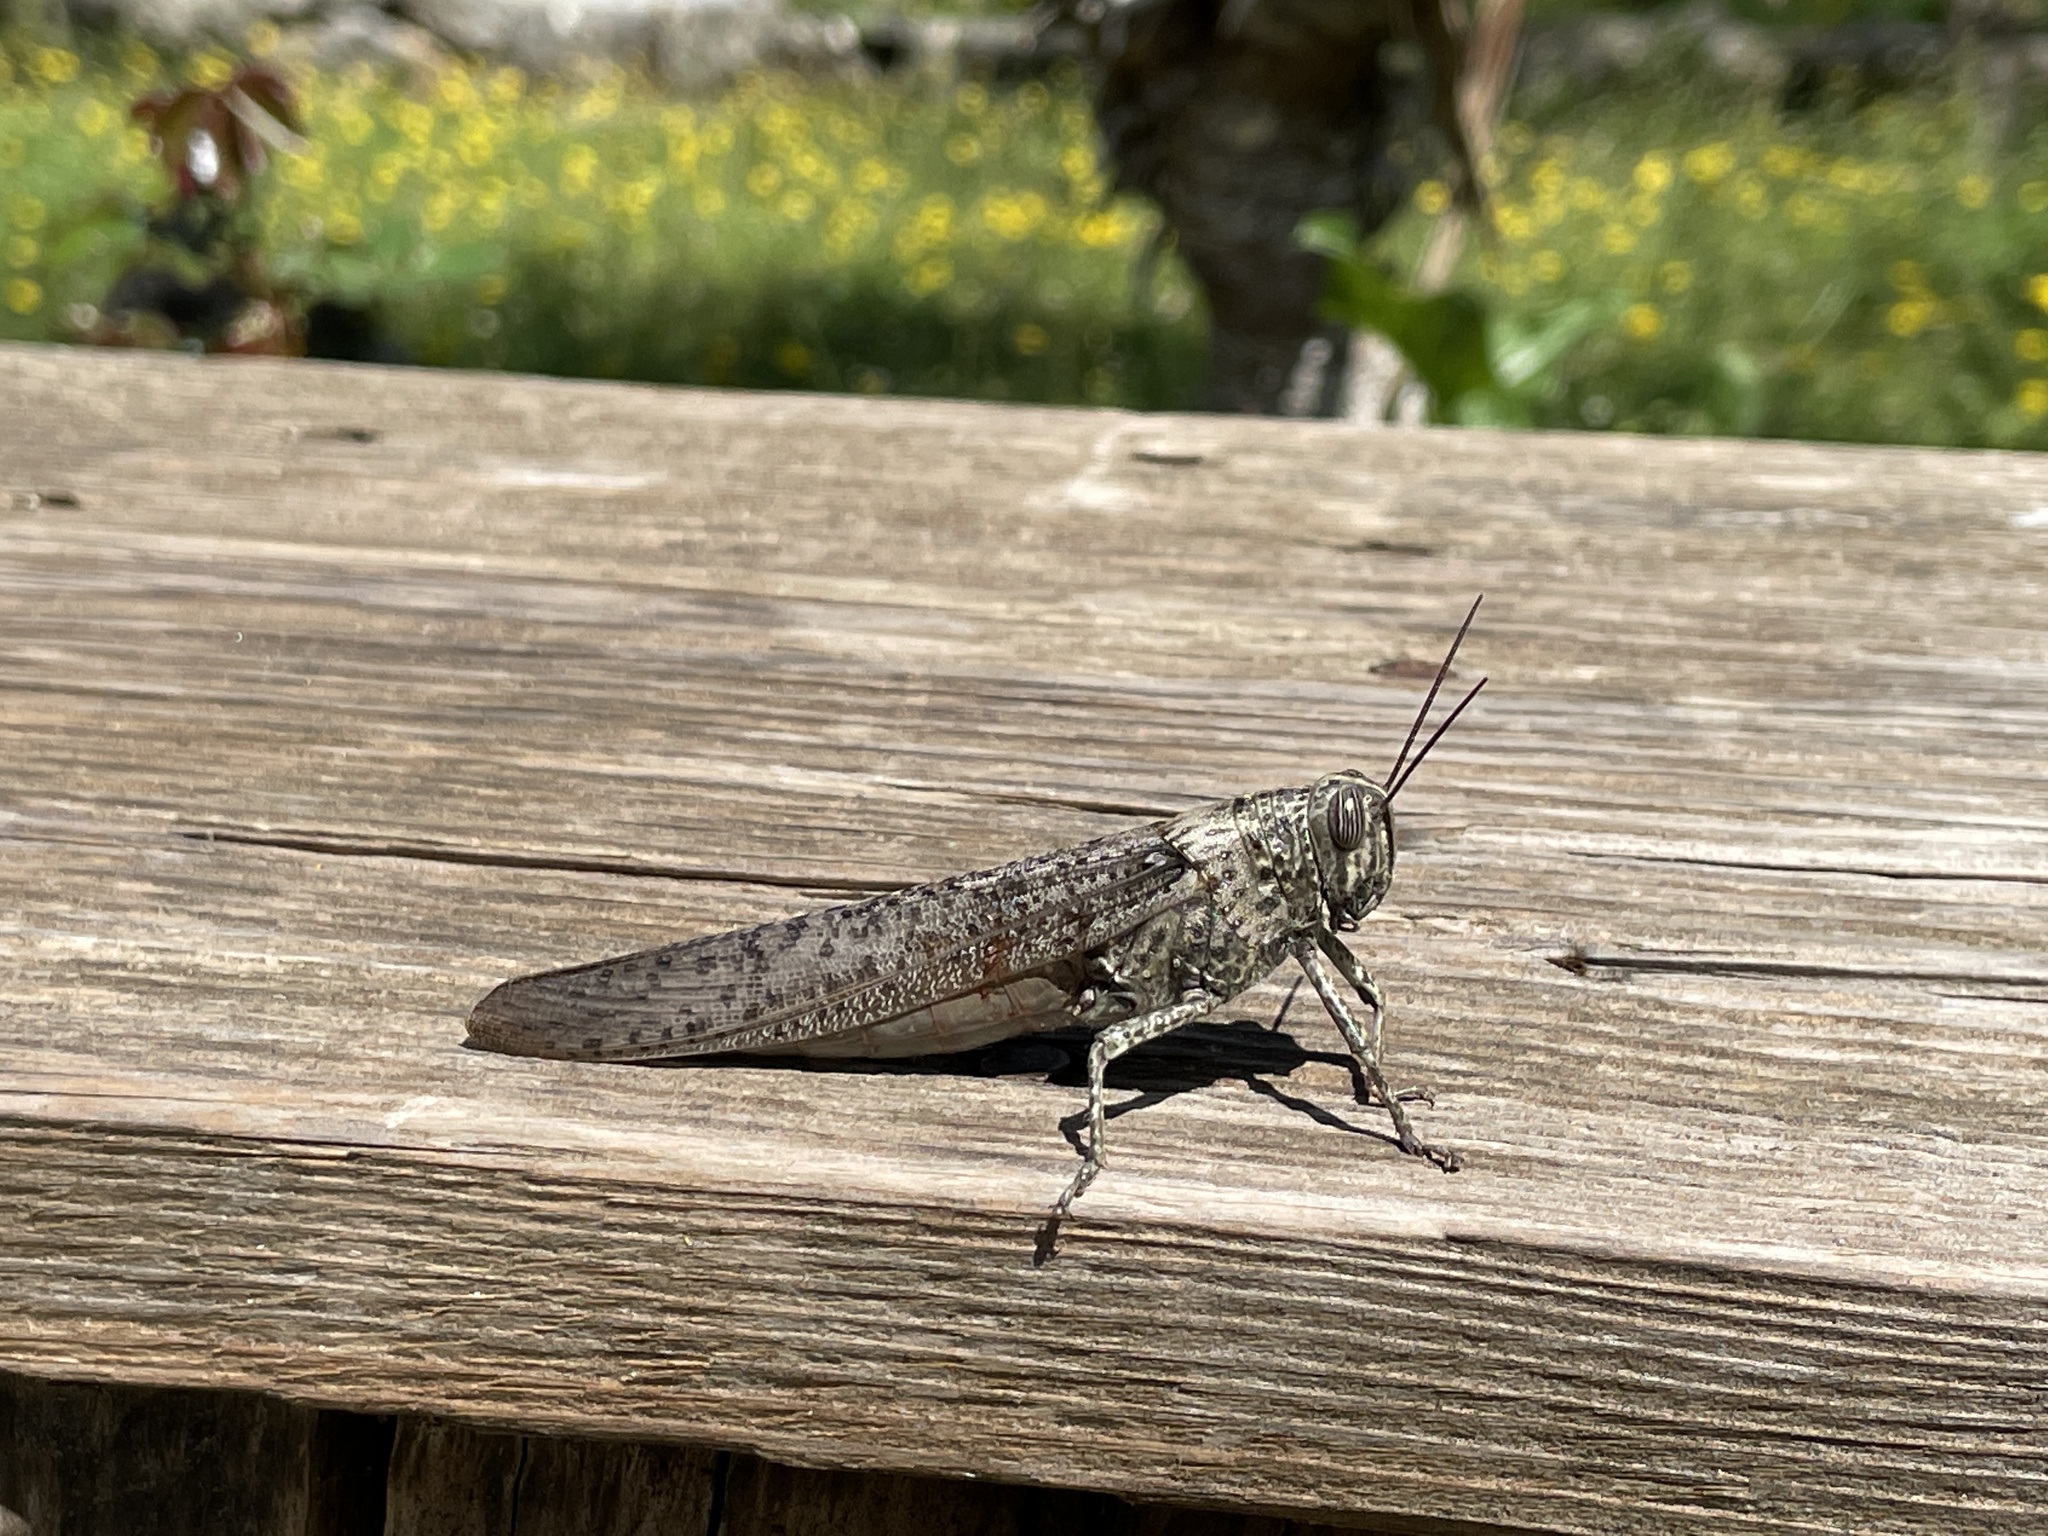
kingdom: Animalia
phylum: Arthropoda
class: Insecta
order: Orthoptera
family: Acrididae
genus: Anacridium
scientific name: Anacridium aegyptium
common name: Egyptian grasshopper
